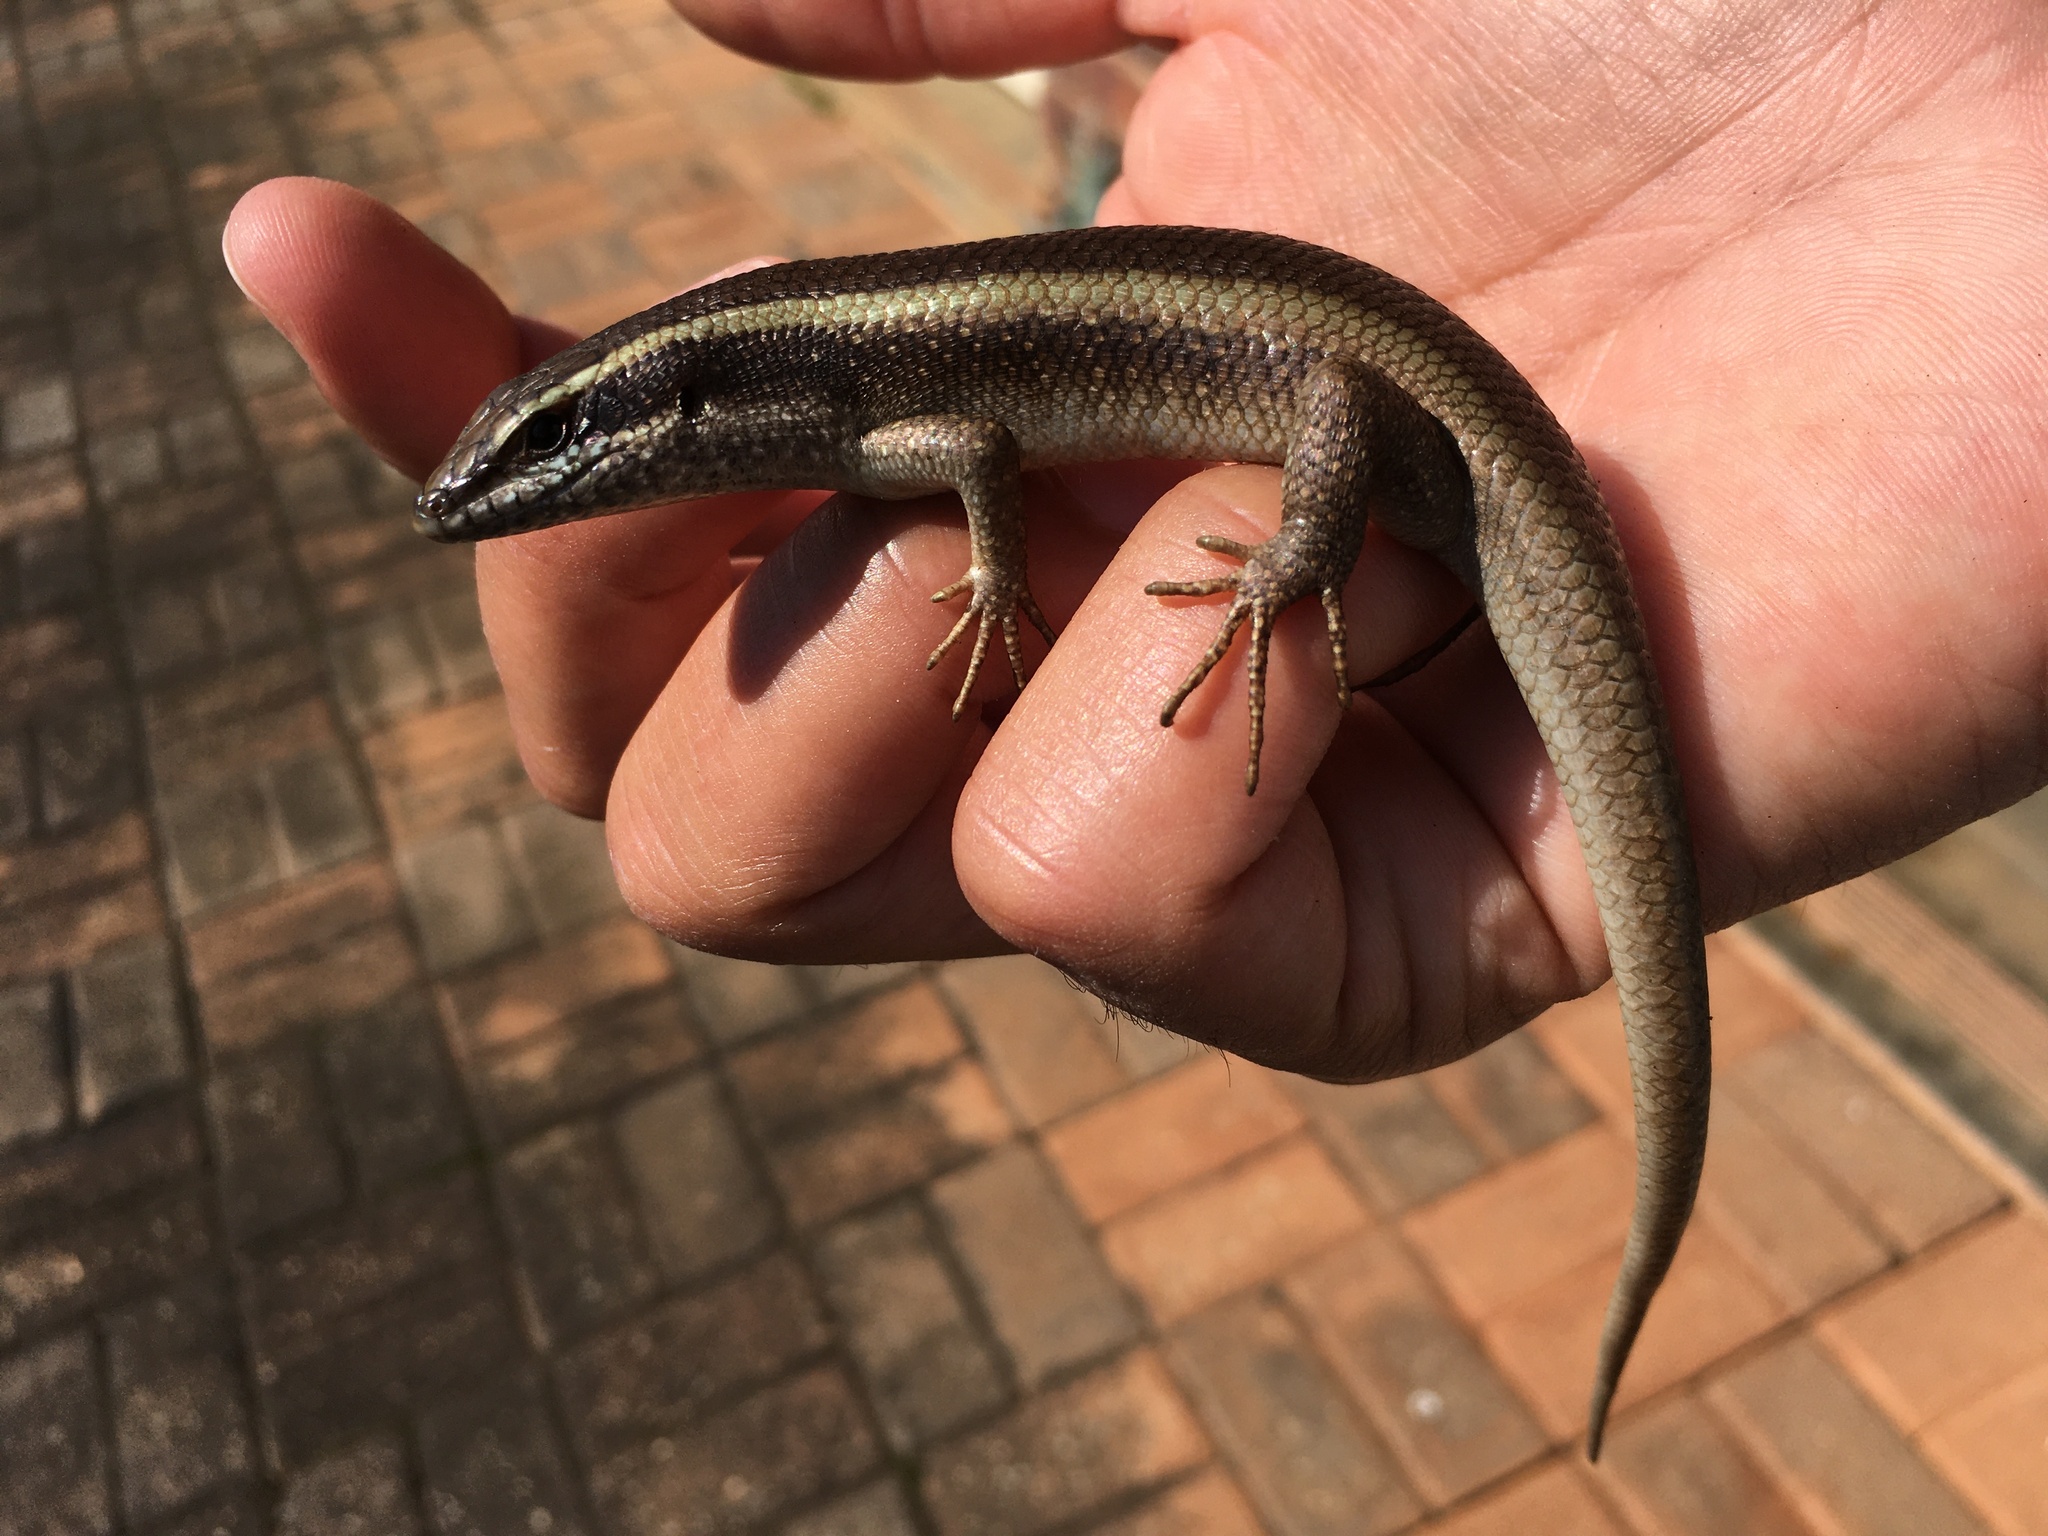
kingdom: Animalia
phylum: Chordata
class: Squamata
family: Scincidae
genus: Trachylepis
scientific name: Trachylepis striata
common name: African striped mabuya
